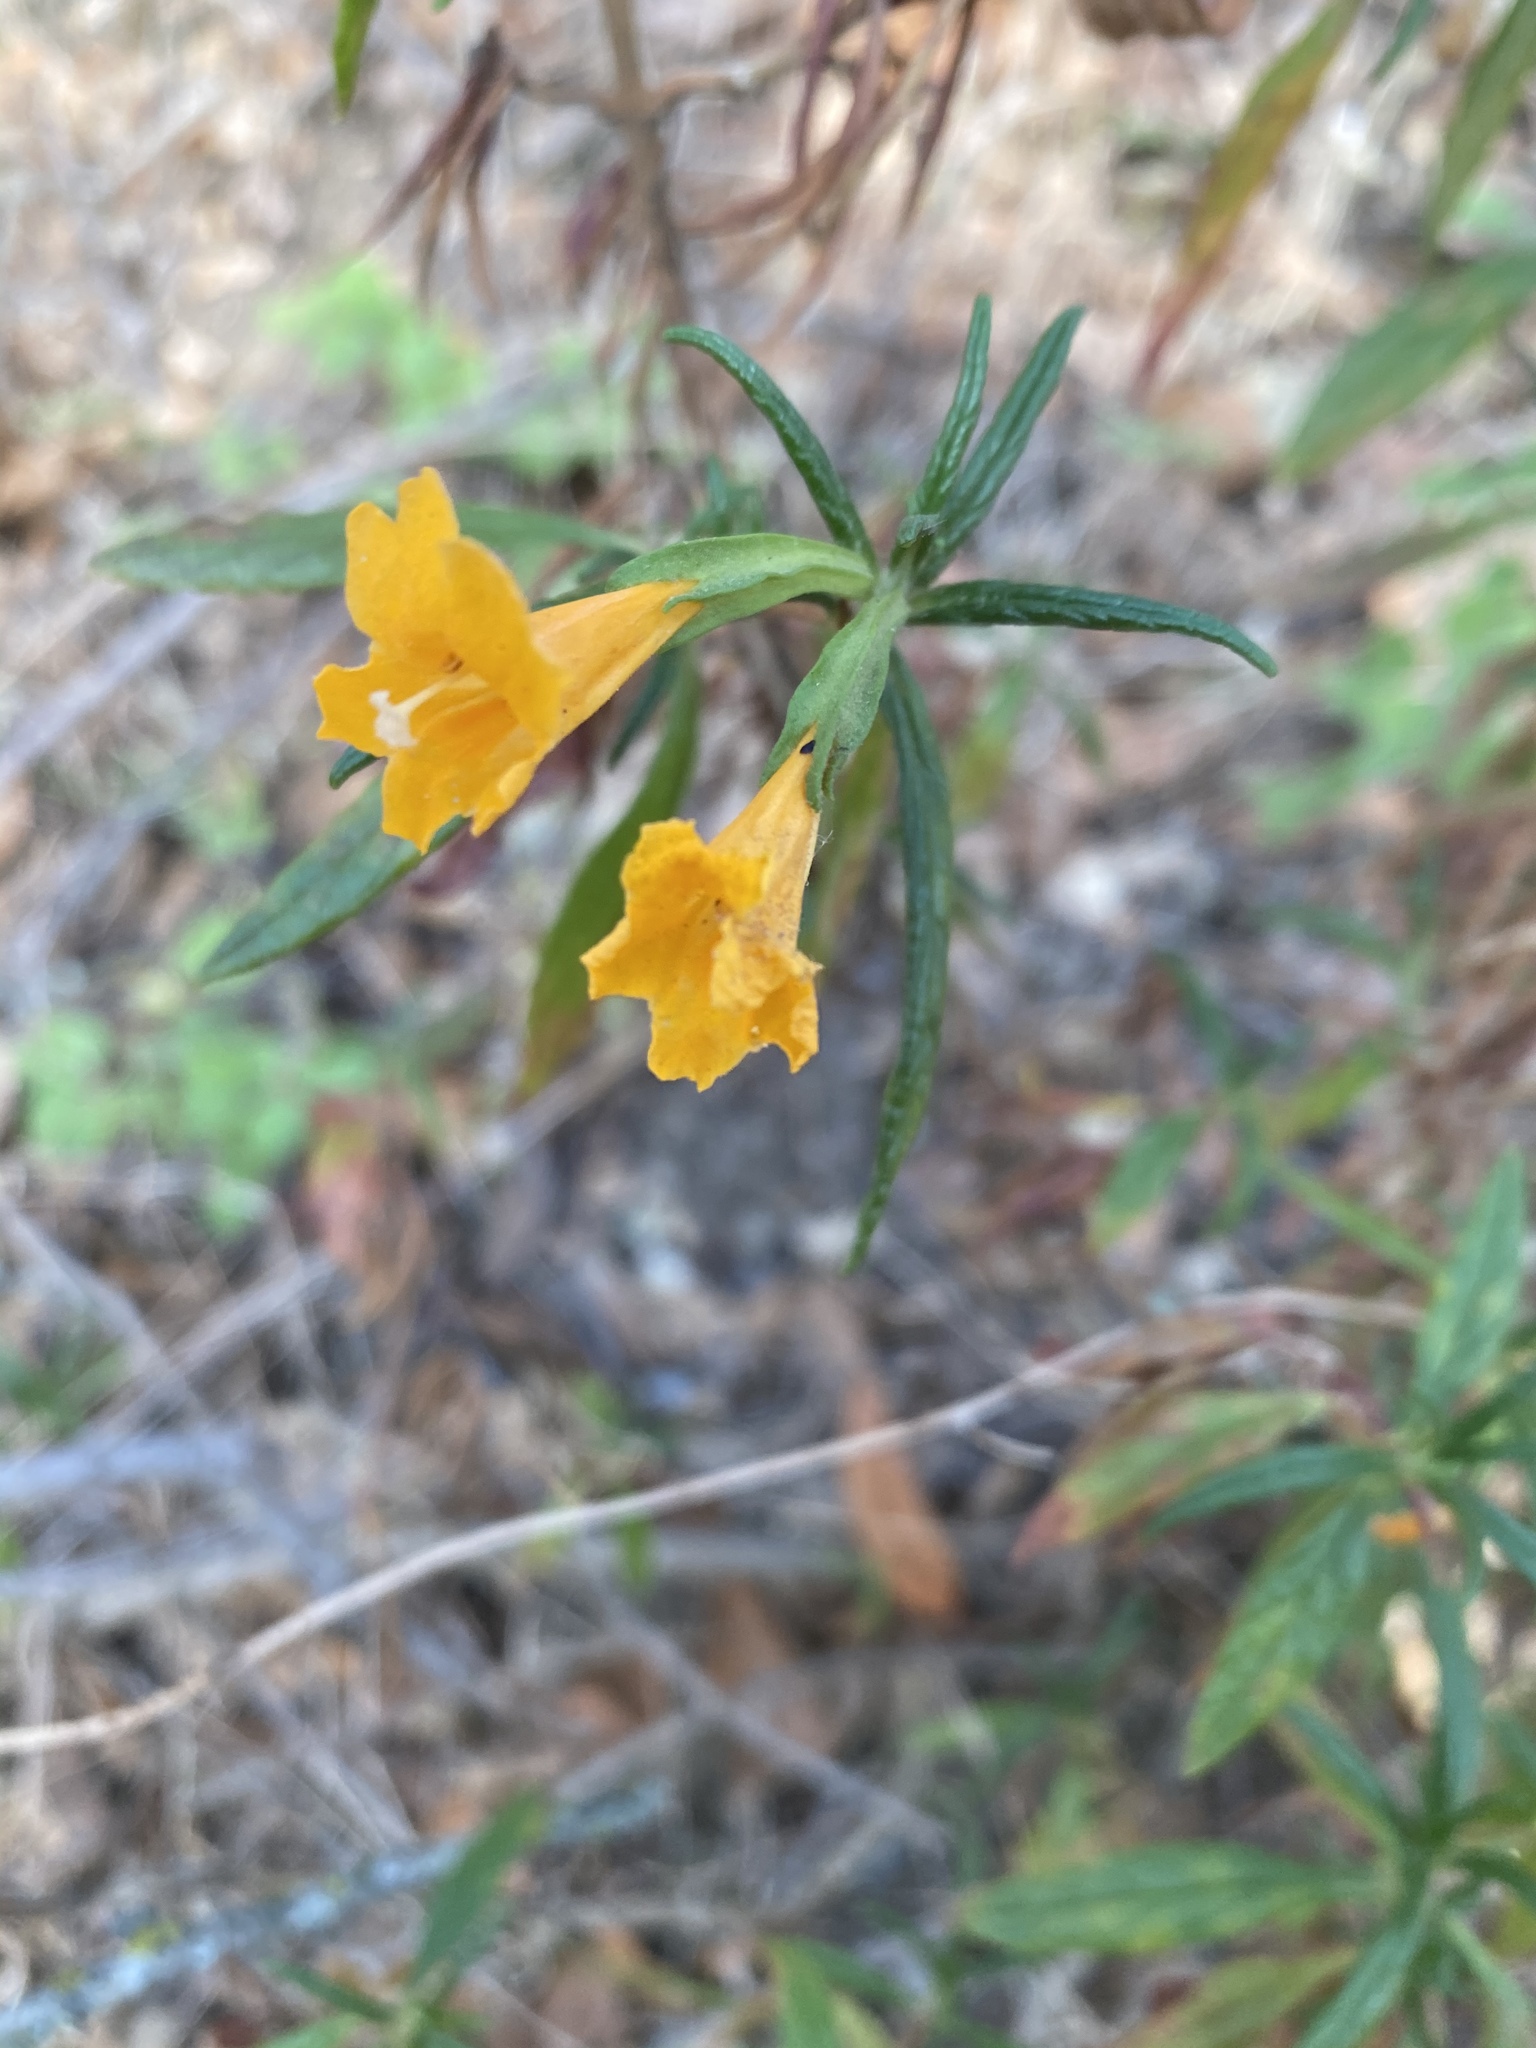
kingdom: Plantae
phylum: Tracheophyta
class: Magnoliopsida
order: Lamiales
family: Phrymaceae
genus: Diplacus
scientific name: Diplacus aurantiacus
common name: Bush monkey-flower
